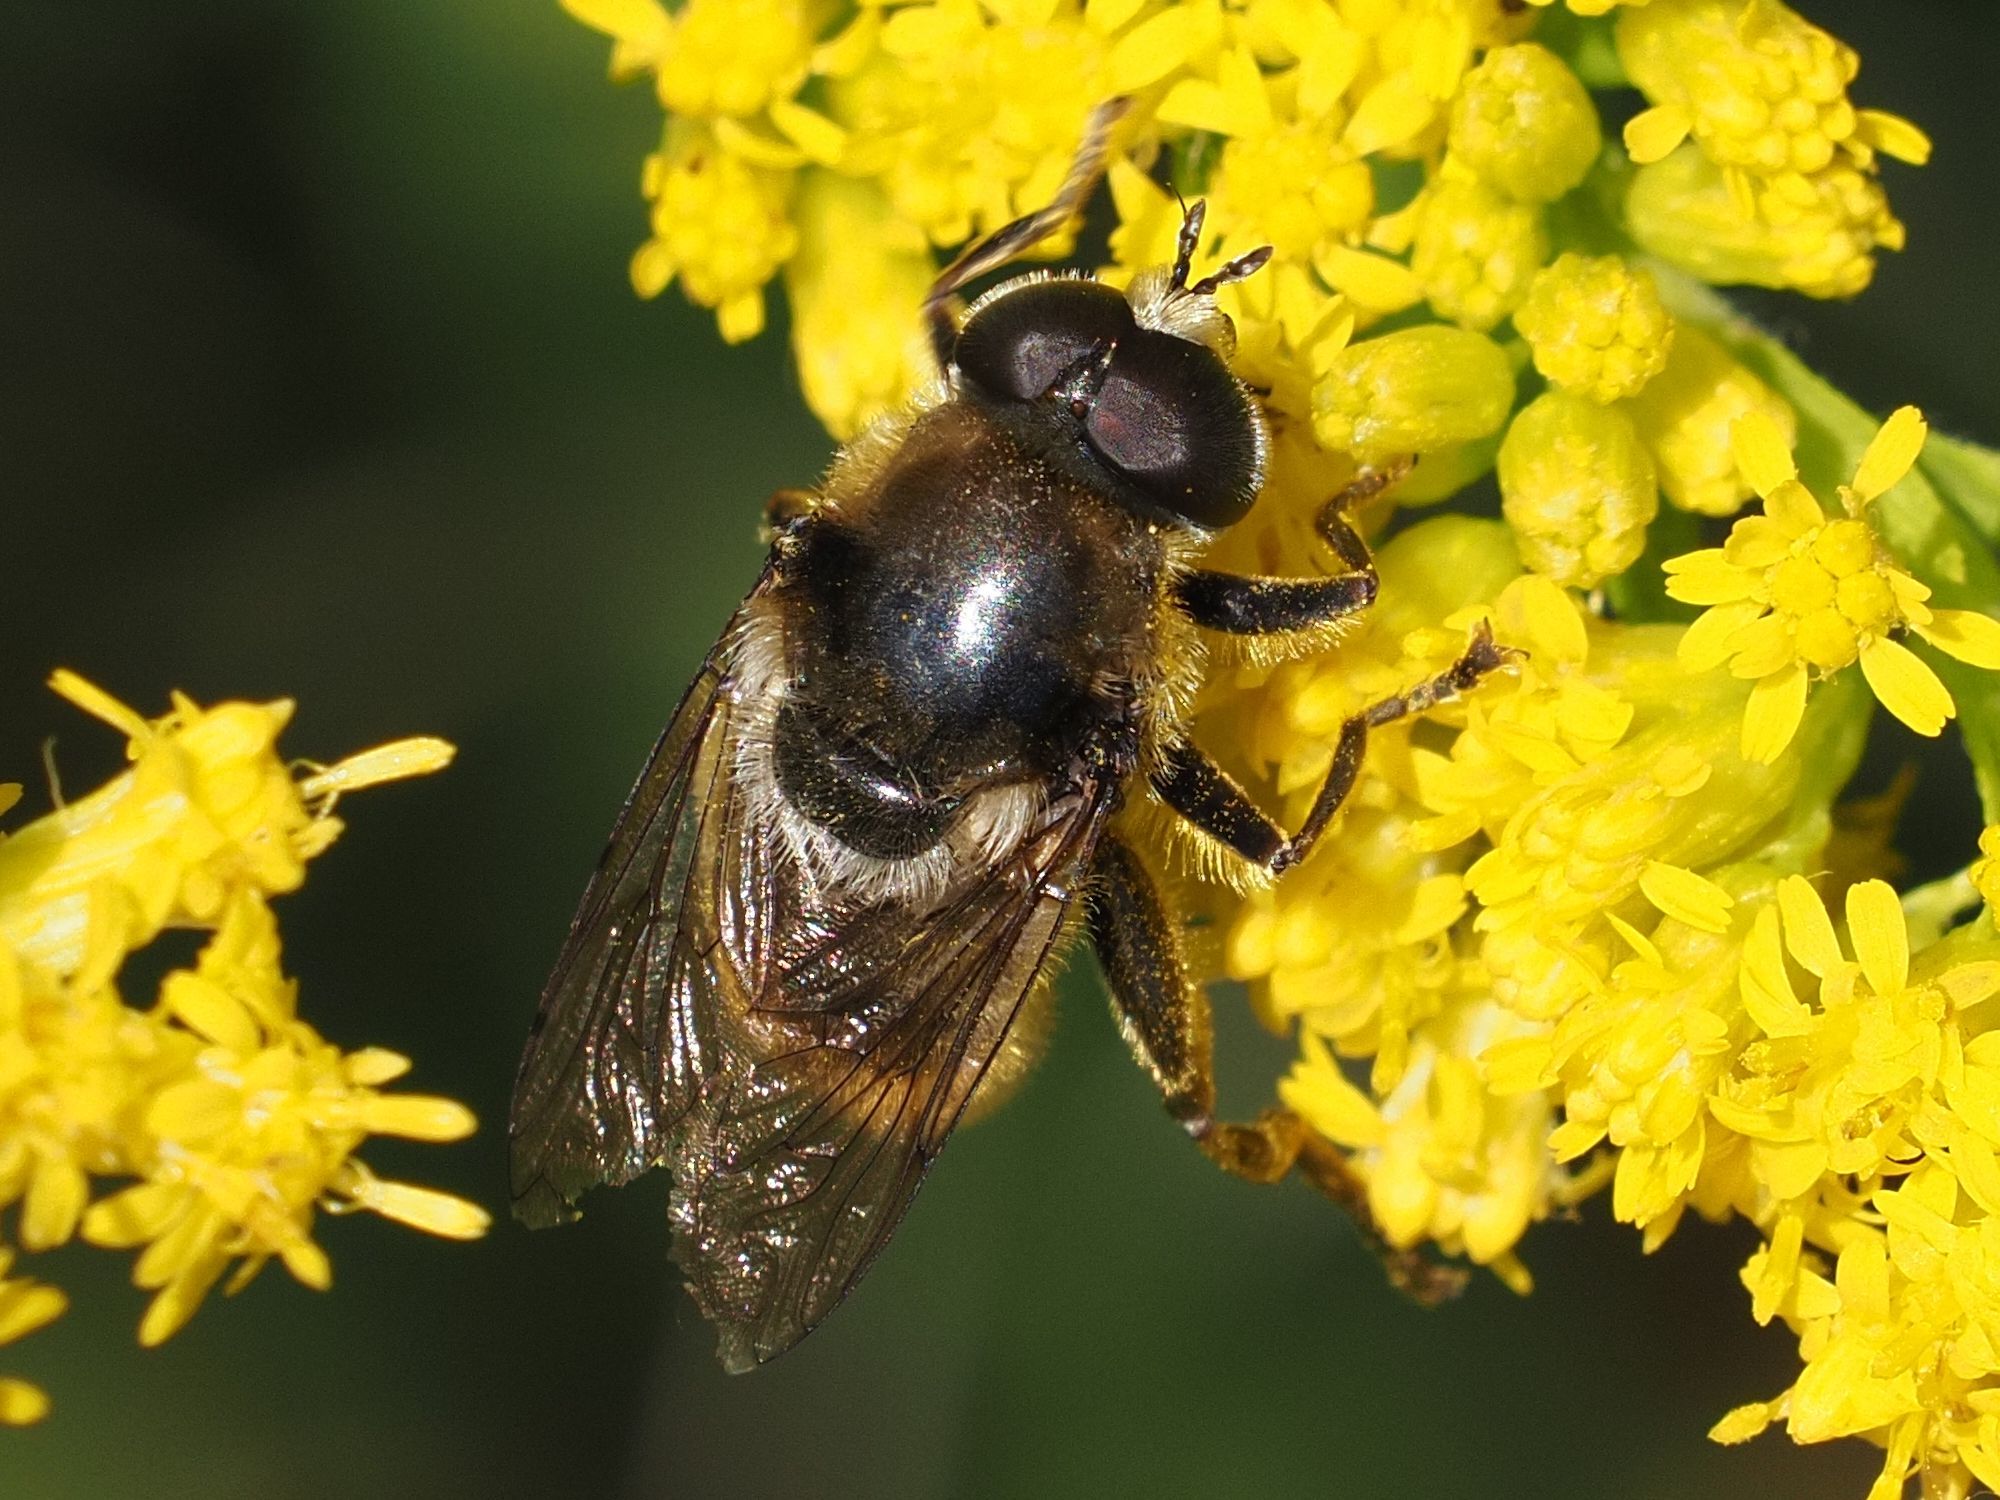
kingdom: Animalia
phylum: Arthropoda
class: Insecta
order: Diptera
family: Syrphidae
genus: Merodon
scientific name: Merodon constans
